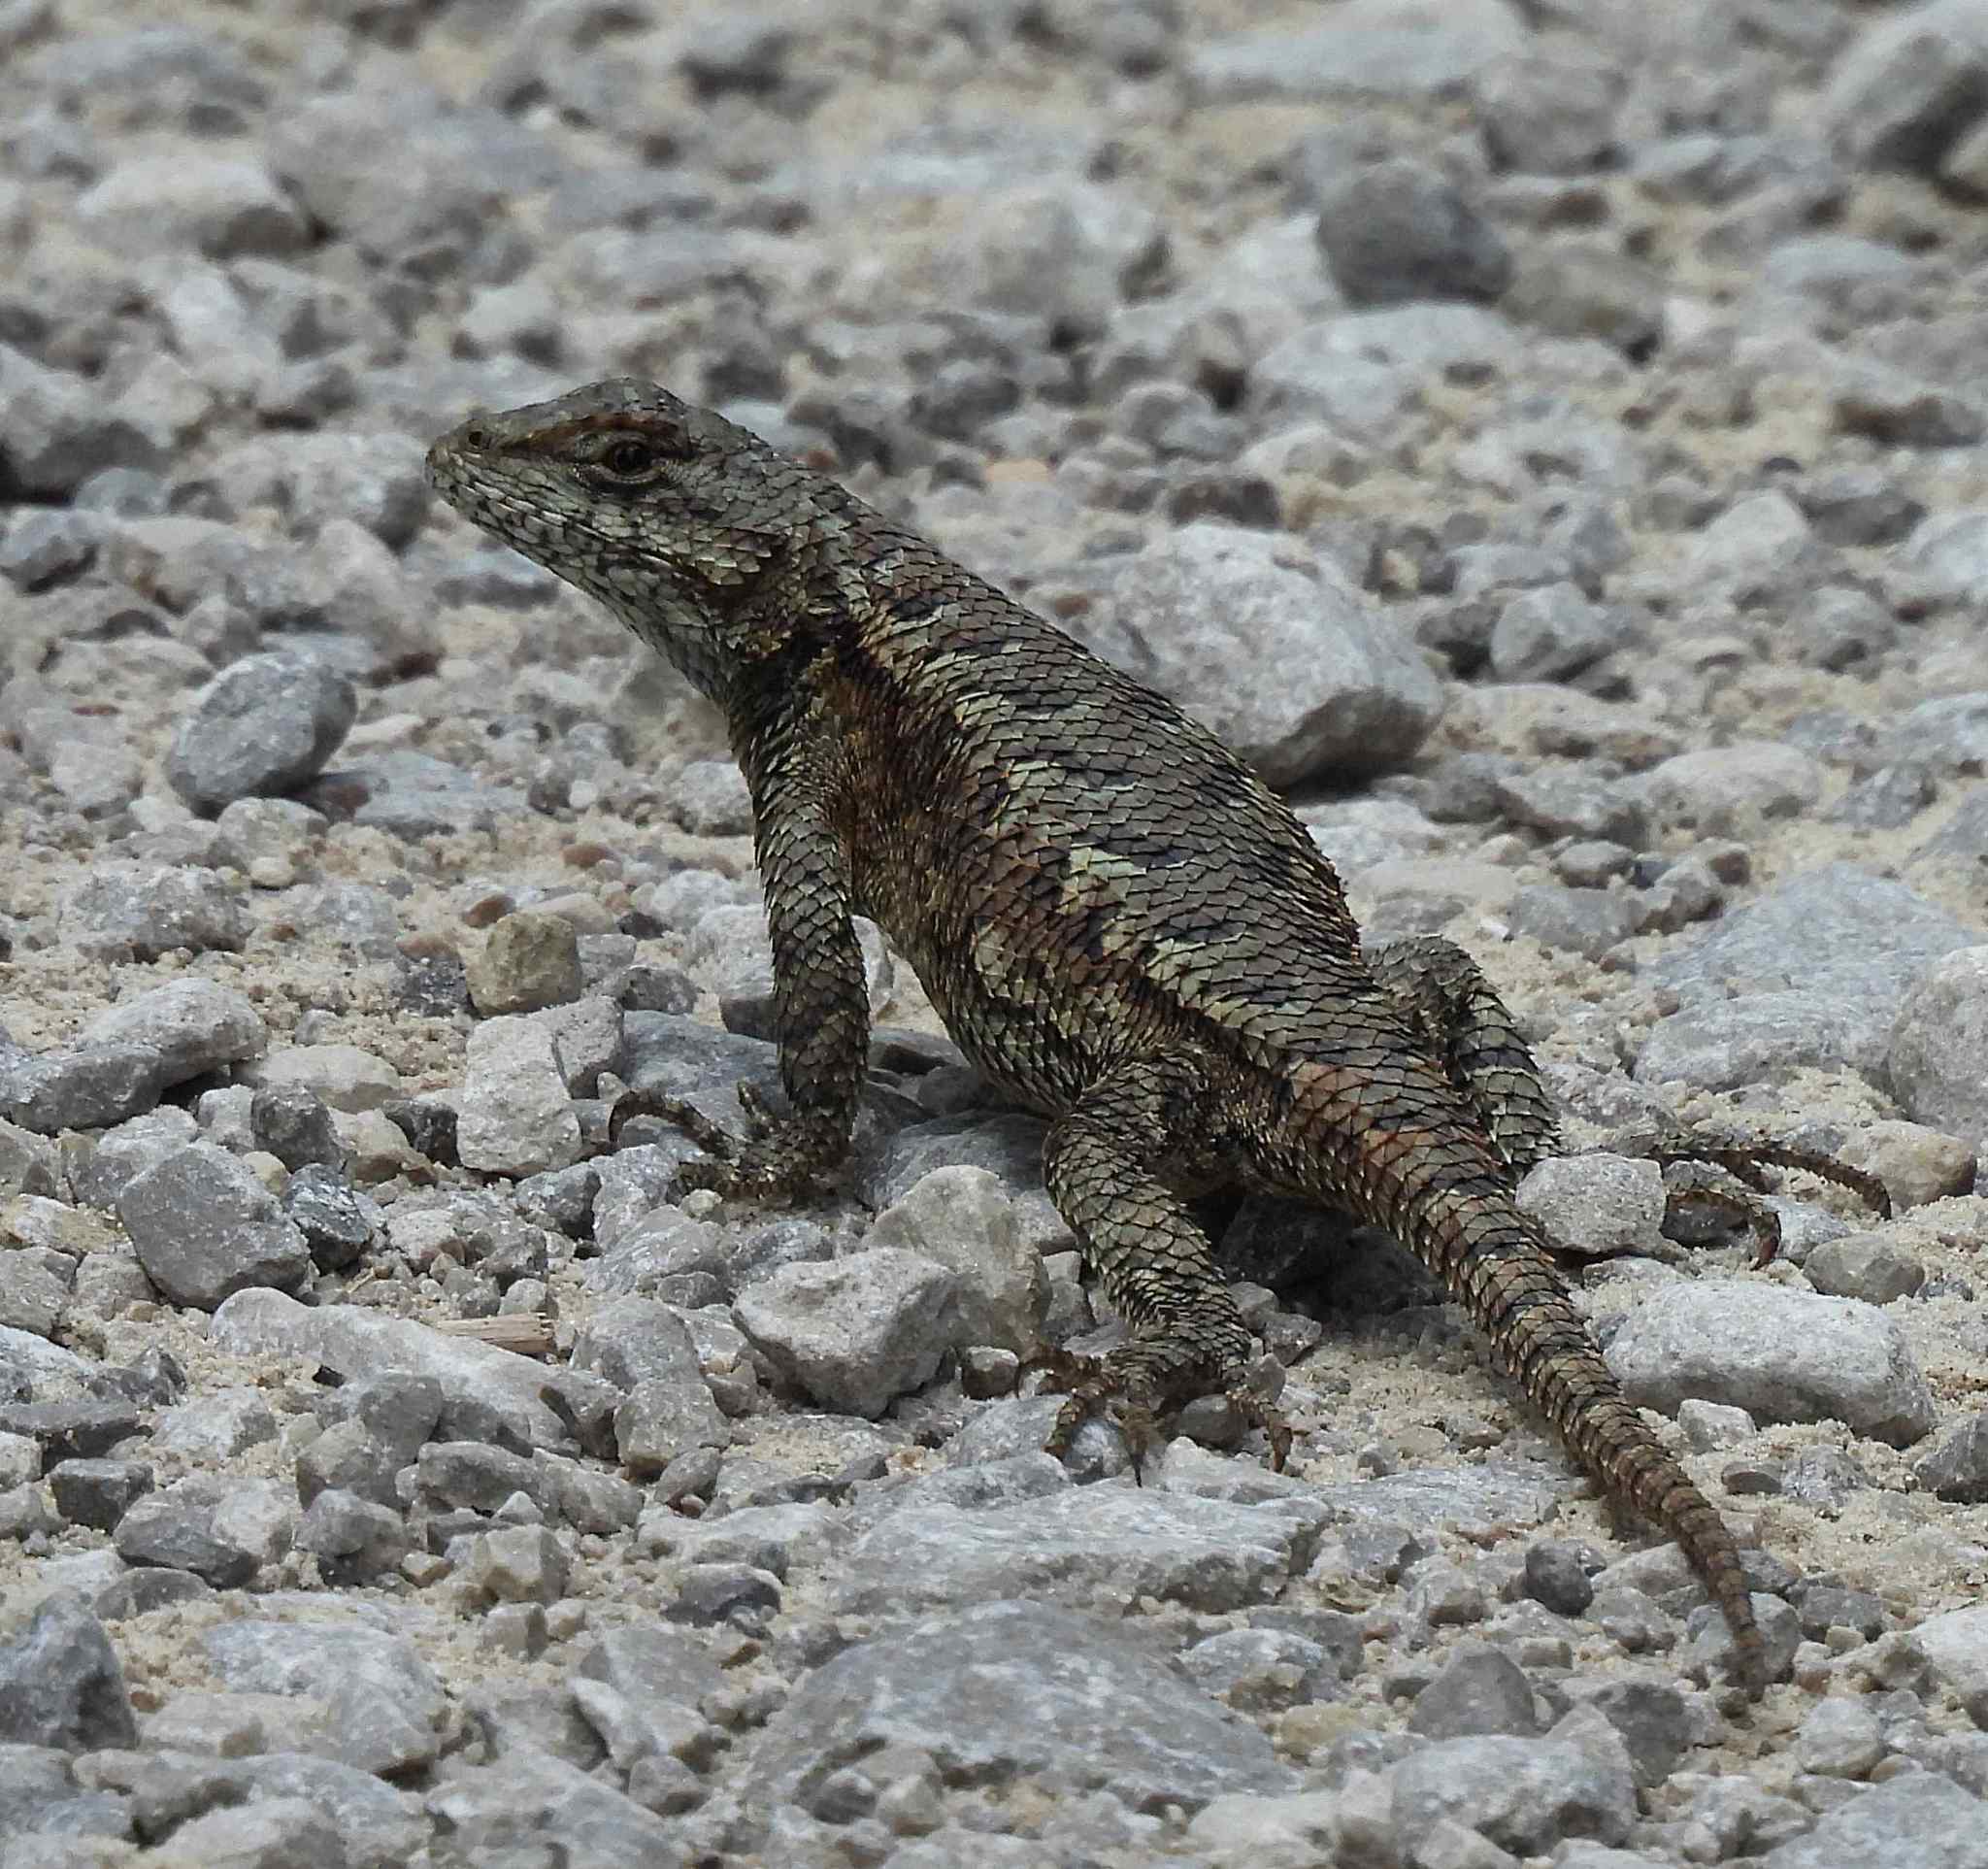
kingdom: Animalia
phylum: Chordata
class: Squamata
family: Phrynosomatidae
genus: Sceloporus
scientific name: Sceloporus undulatus
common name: Eastern fence lizard
